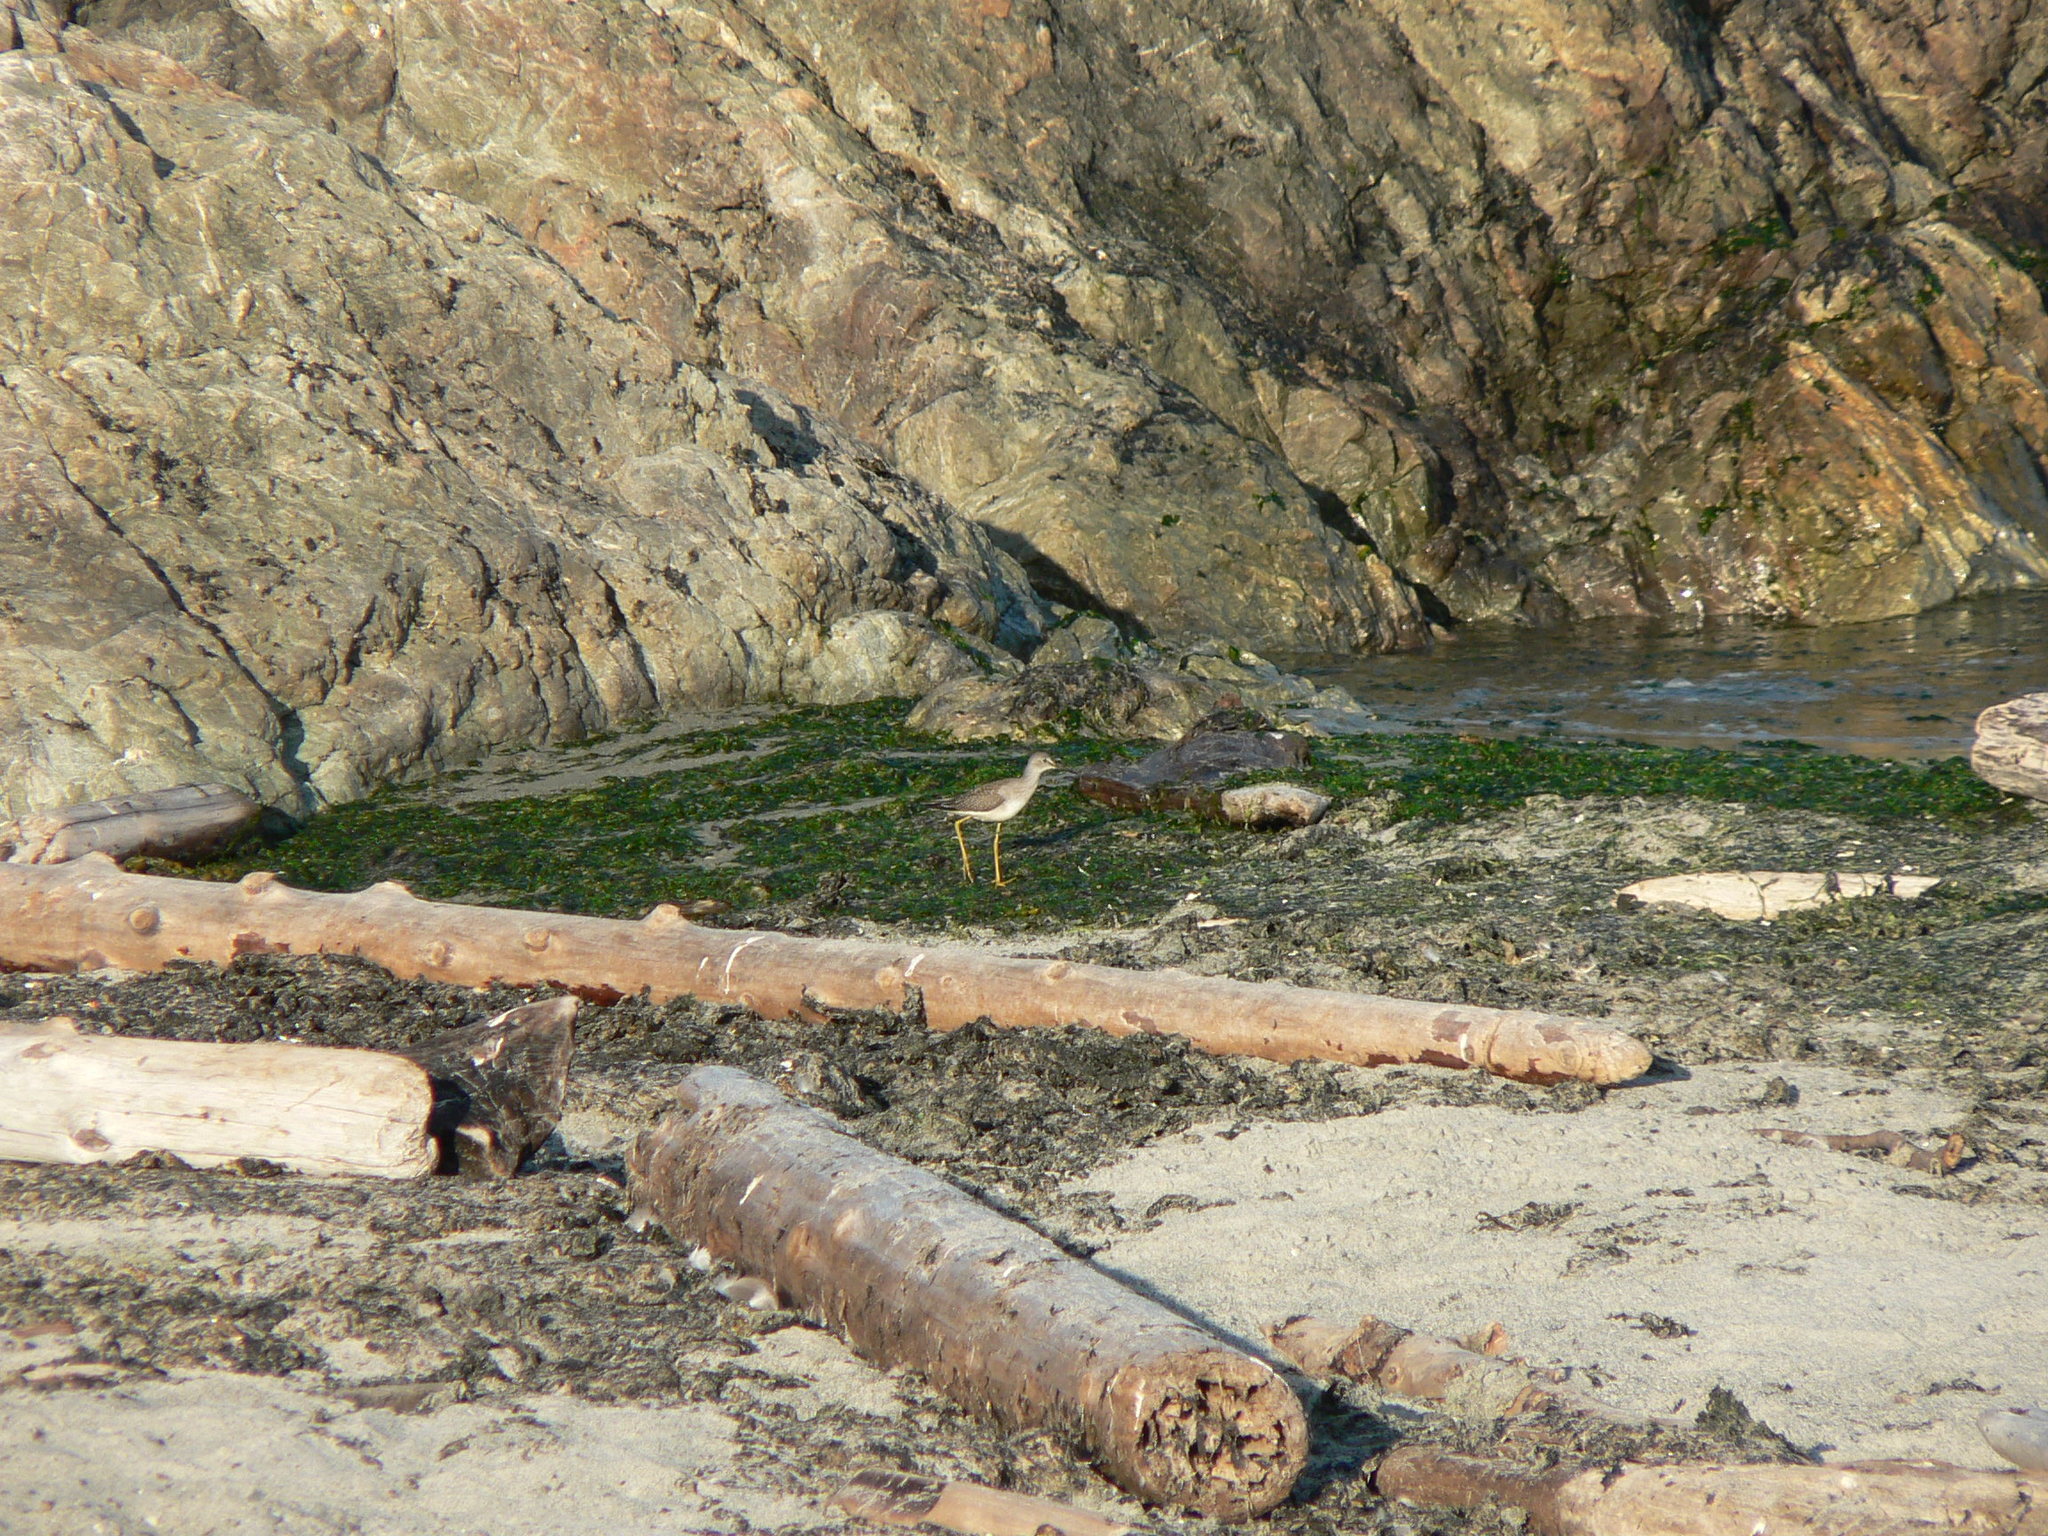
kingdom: Animalia
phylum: Chordata
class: Aves
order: Charadriiformes
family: Scolopacidae
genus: Tringa
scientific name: Tringa flavipes
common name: Lesser yellowlegs
